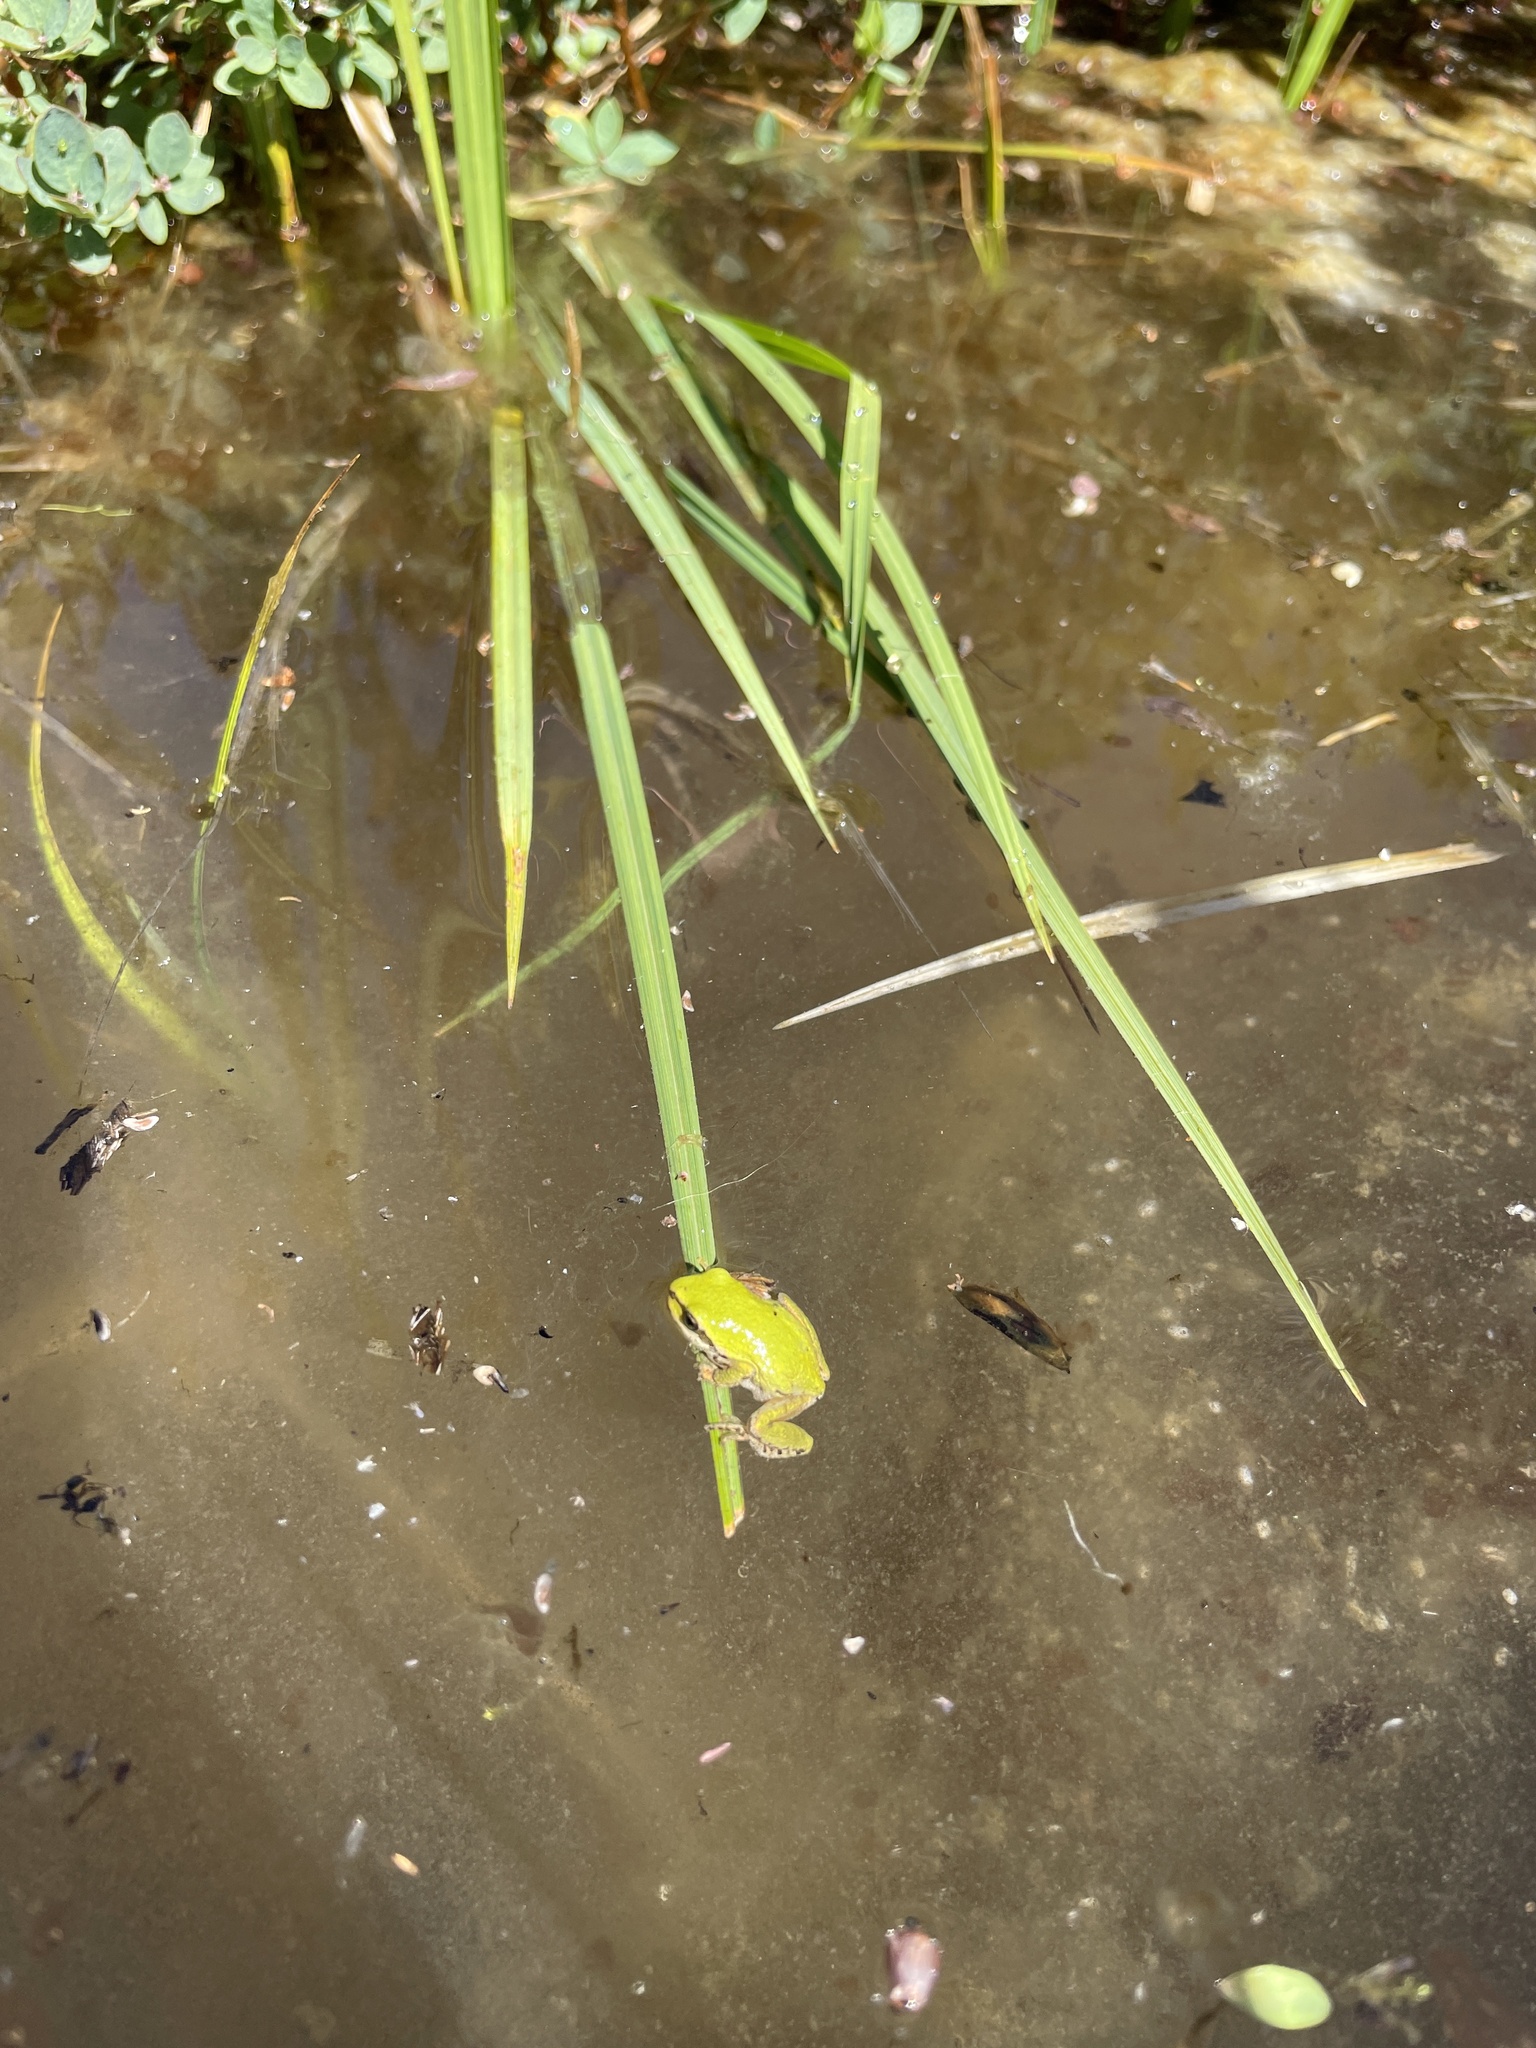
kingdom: Animalia
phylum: Chordata
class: Amphibia
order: Anura
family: Hylidae
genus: Pseudacris
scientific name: Pseudacris regilla
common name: Pacific chorus frog
